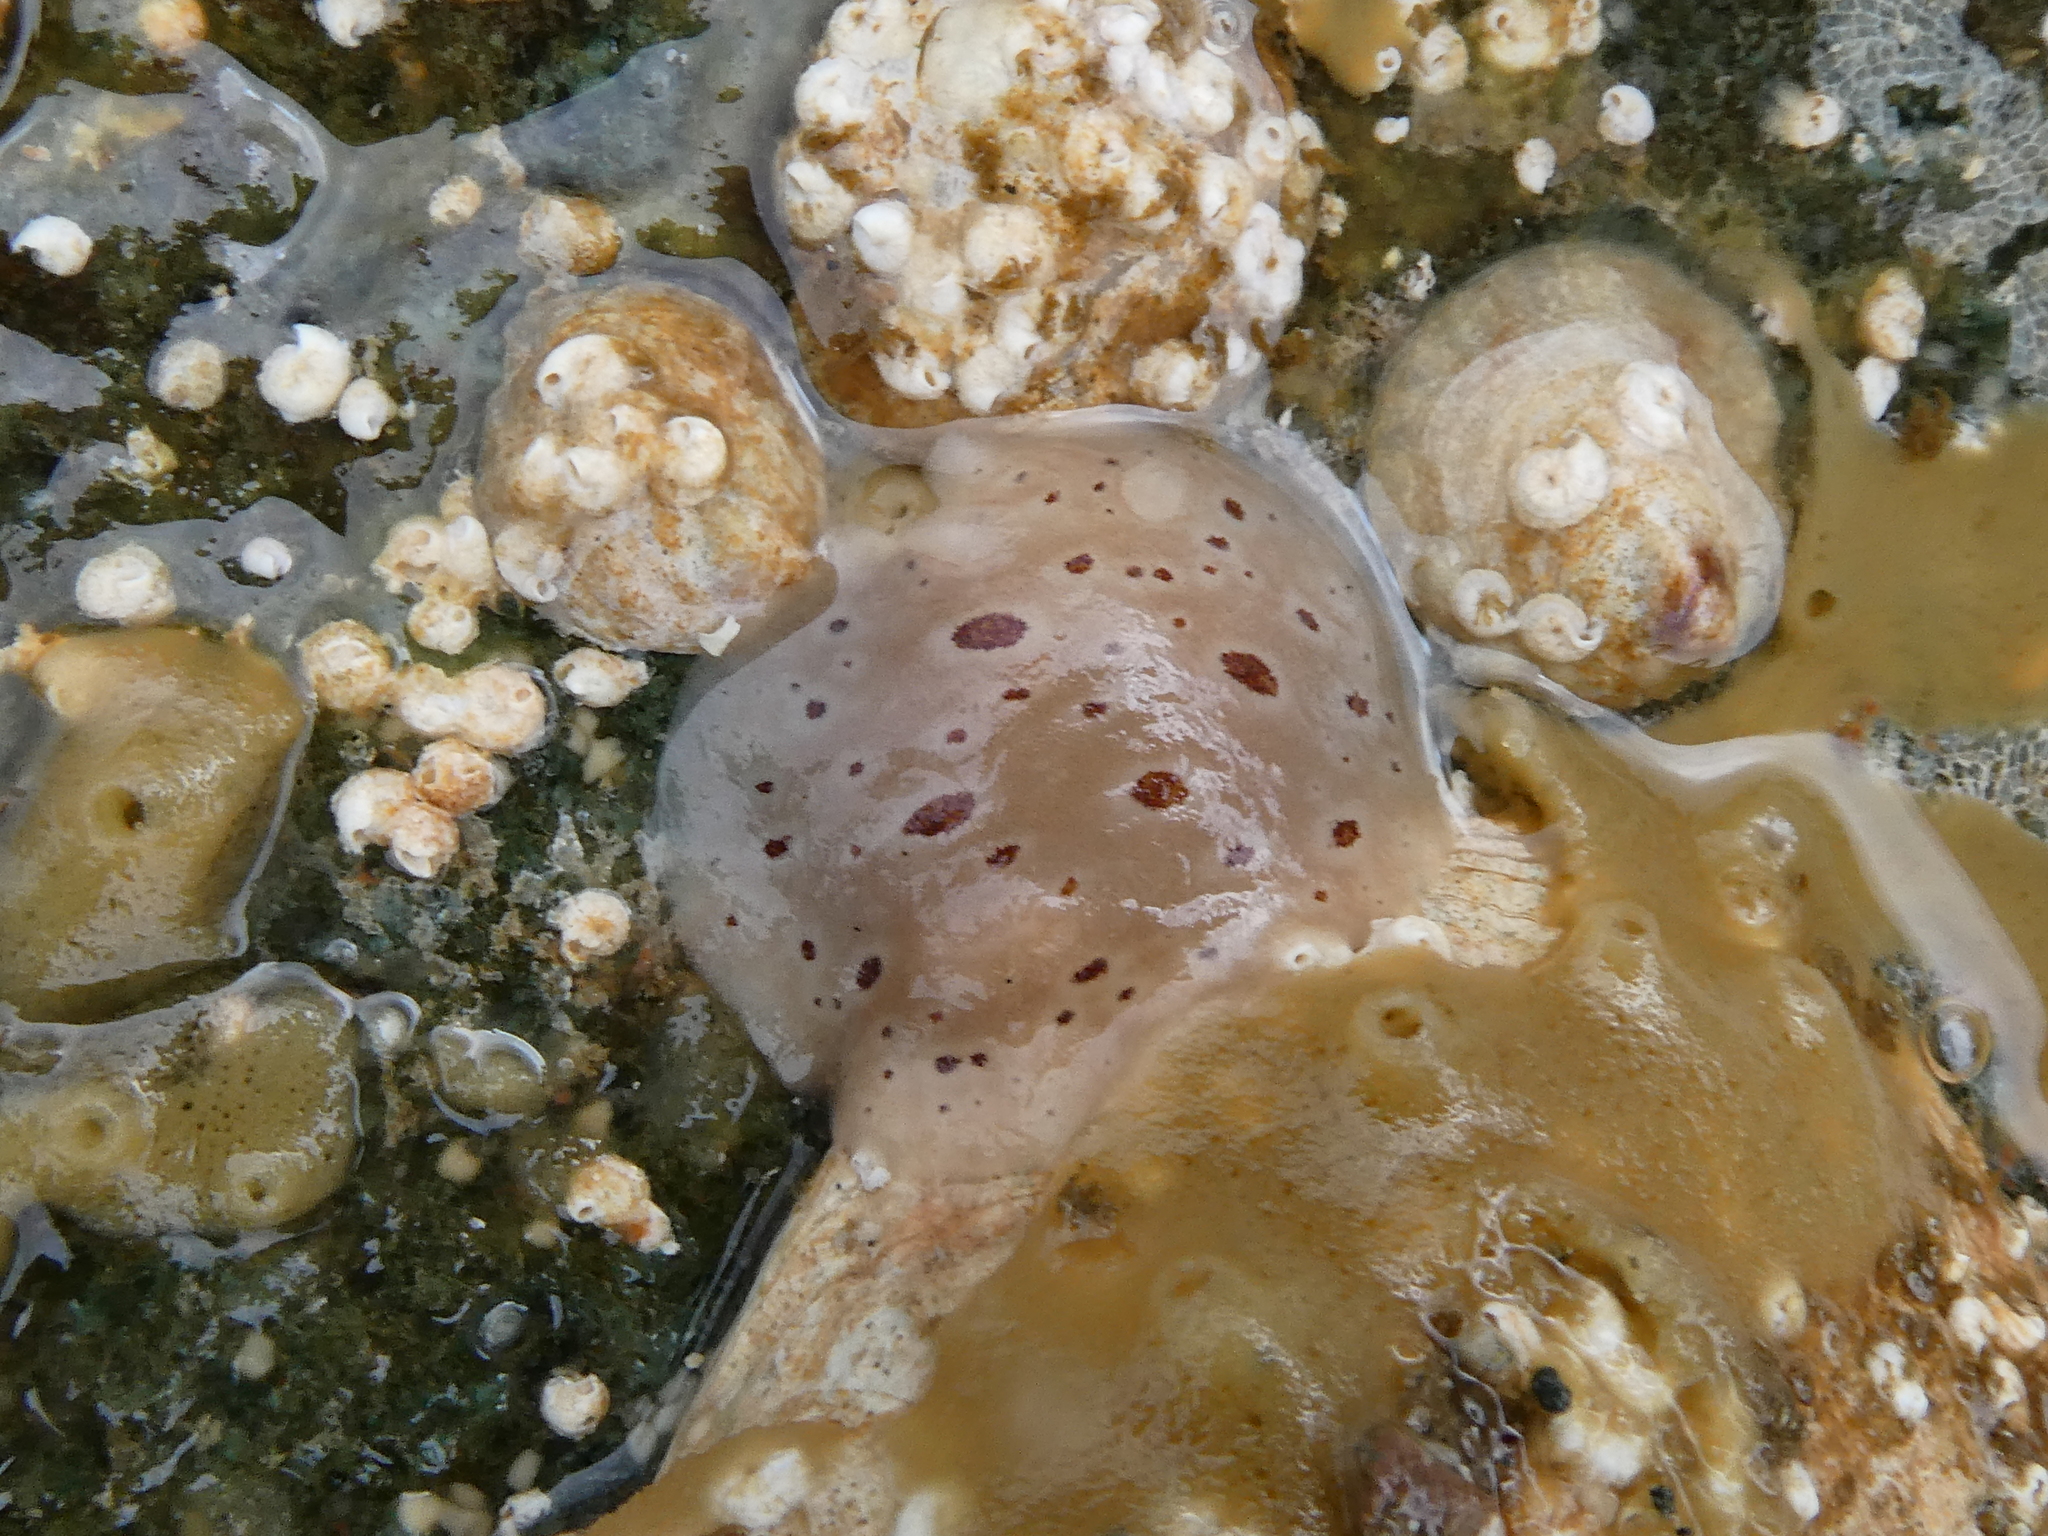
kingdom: Animalia
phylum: Mollusca
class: Gastropoda
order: Nudibranchia
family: Discodorididae
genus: Diaulula
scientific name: Diaulula odonoghuei
